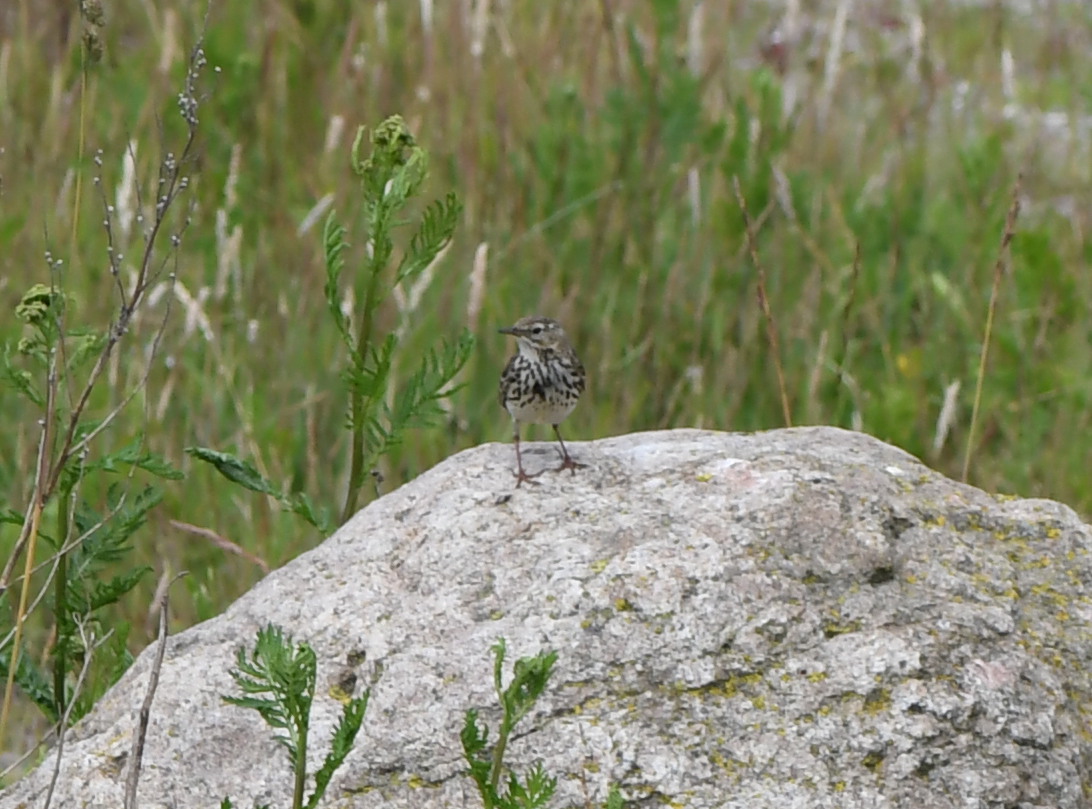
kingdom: Animalia
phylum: Chordata
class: Aves
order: Passeriformes
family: Motacillidae
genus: Anthus
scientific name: Anthus pratensis
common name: Meadow pipit
